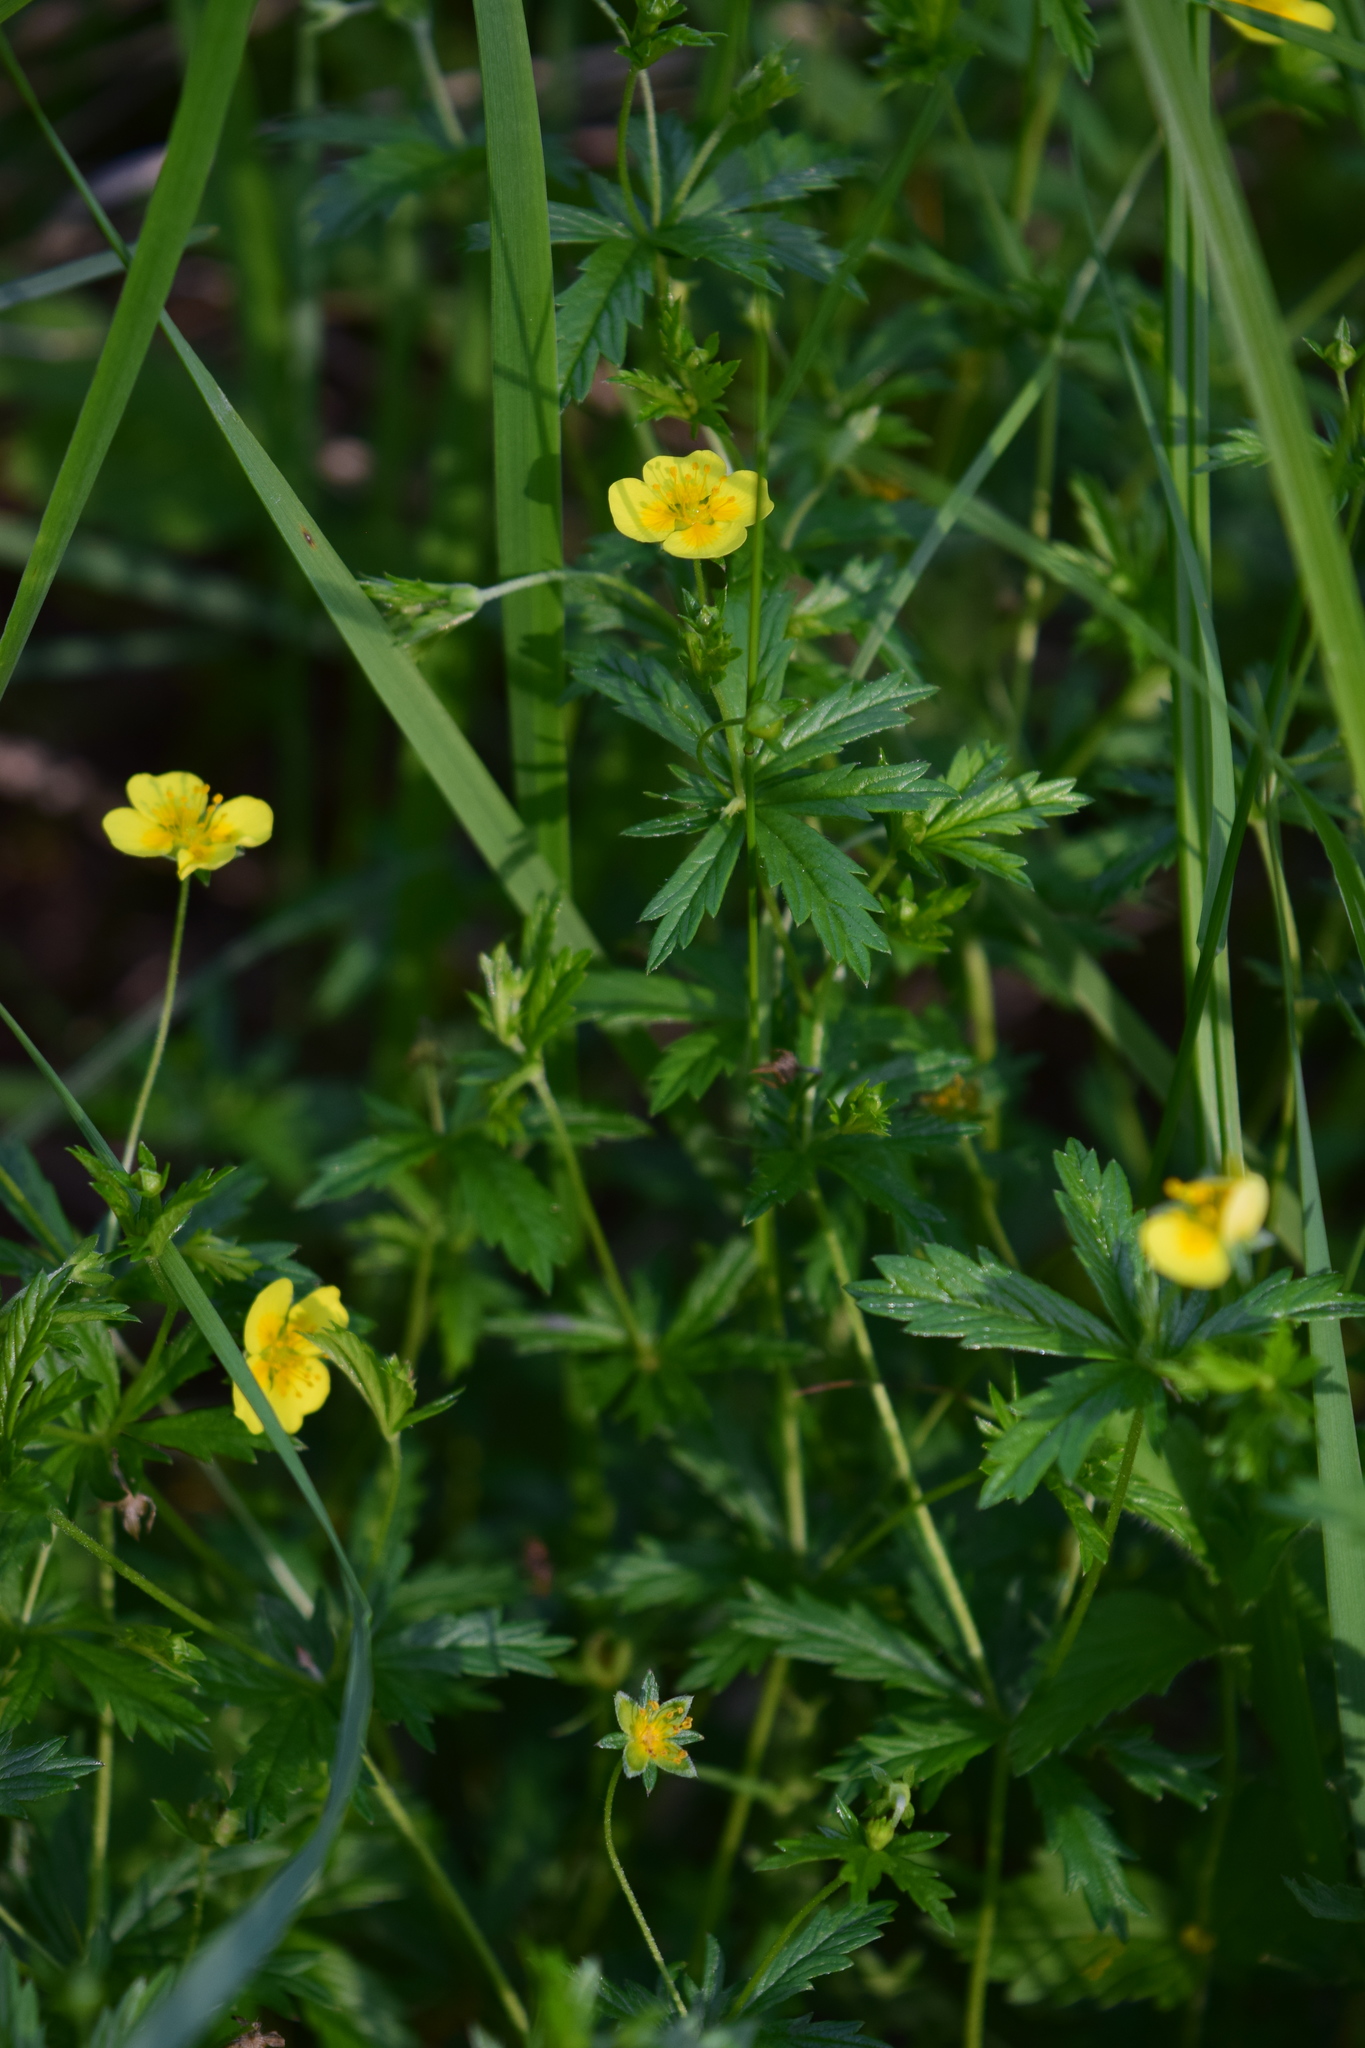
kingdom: Plantae
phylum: Tracheophyta
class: Magnoliopsida
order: Rosales
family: Rosaceae
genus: Potentilla
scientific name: Potentilla erecta
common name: Tormentil
